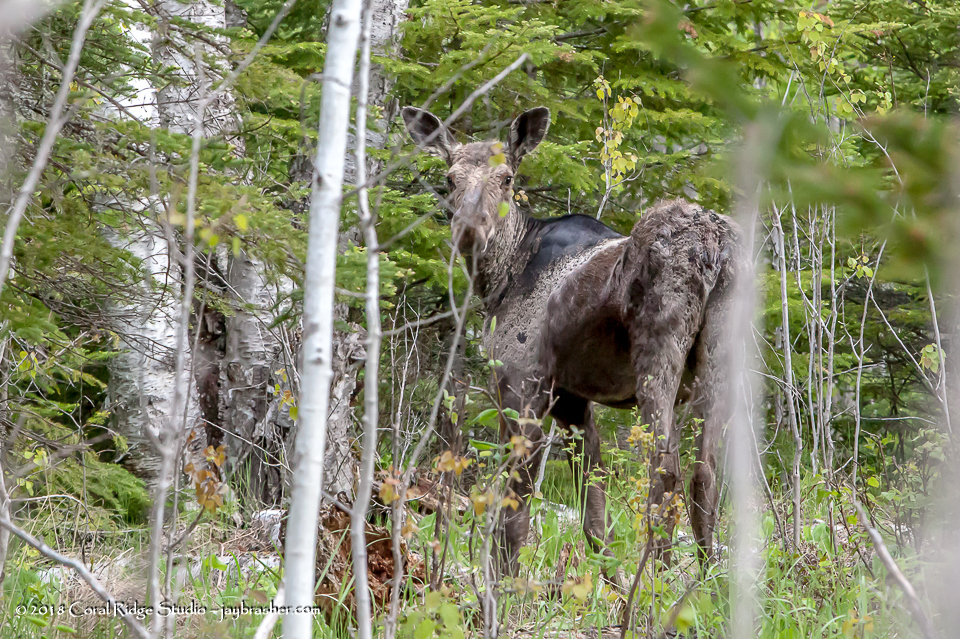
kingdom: Animalia
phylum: Chordata
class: Mammalia
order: Artiodactyla
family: Cervidae
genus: Alces
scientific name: Alces alces
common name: Moose
